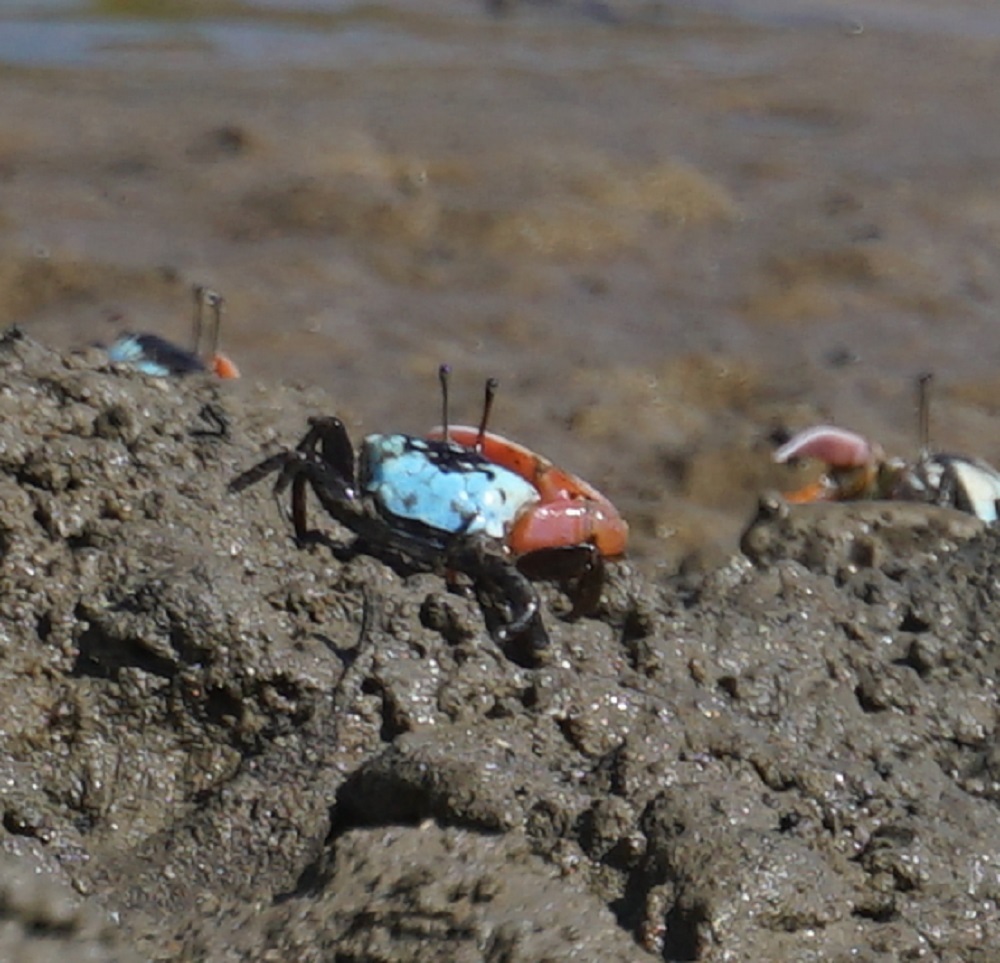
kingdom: Animalia
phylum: Arthropoda
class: Malacostraca
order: Decapoda
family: Ocypodidae
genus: Gelasimus
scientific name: Gelasimus vomeris
